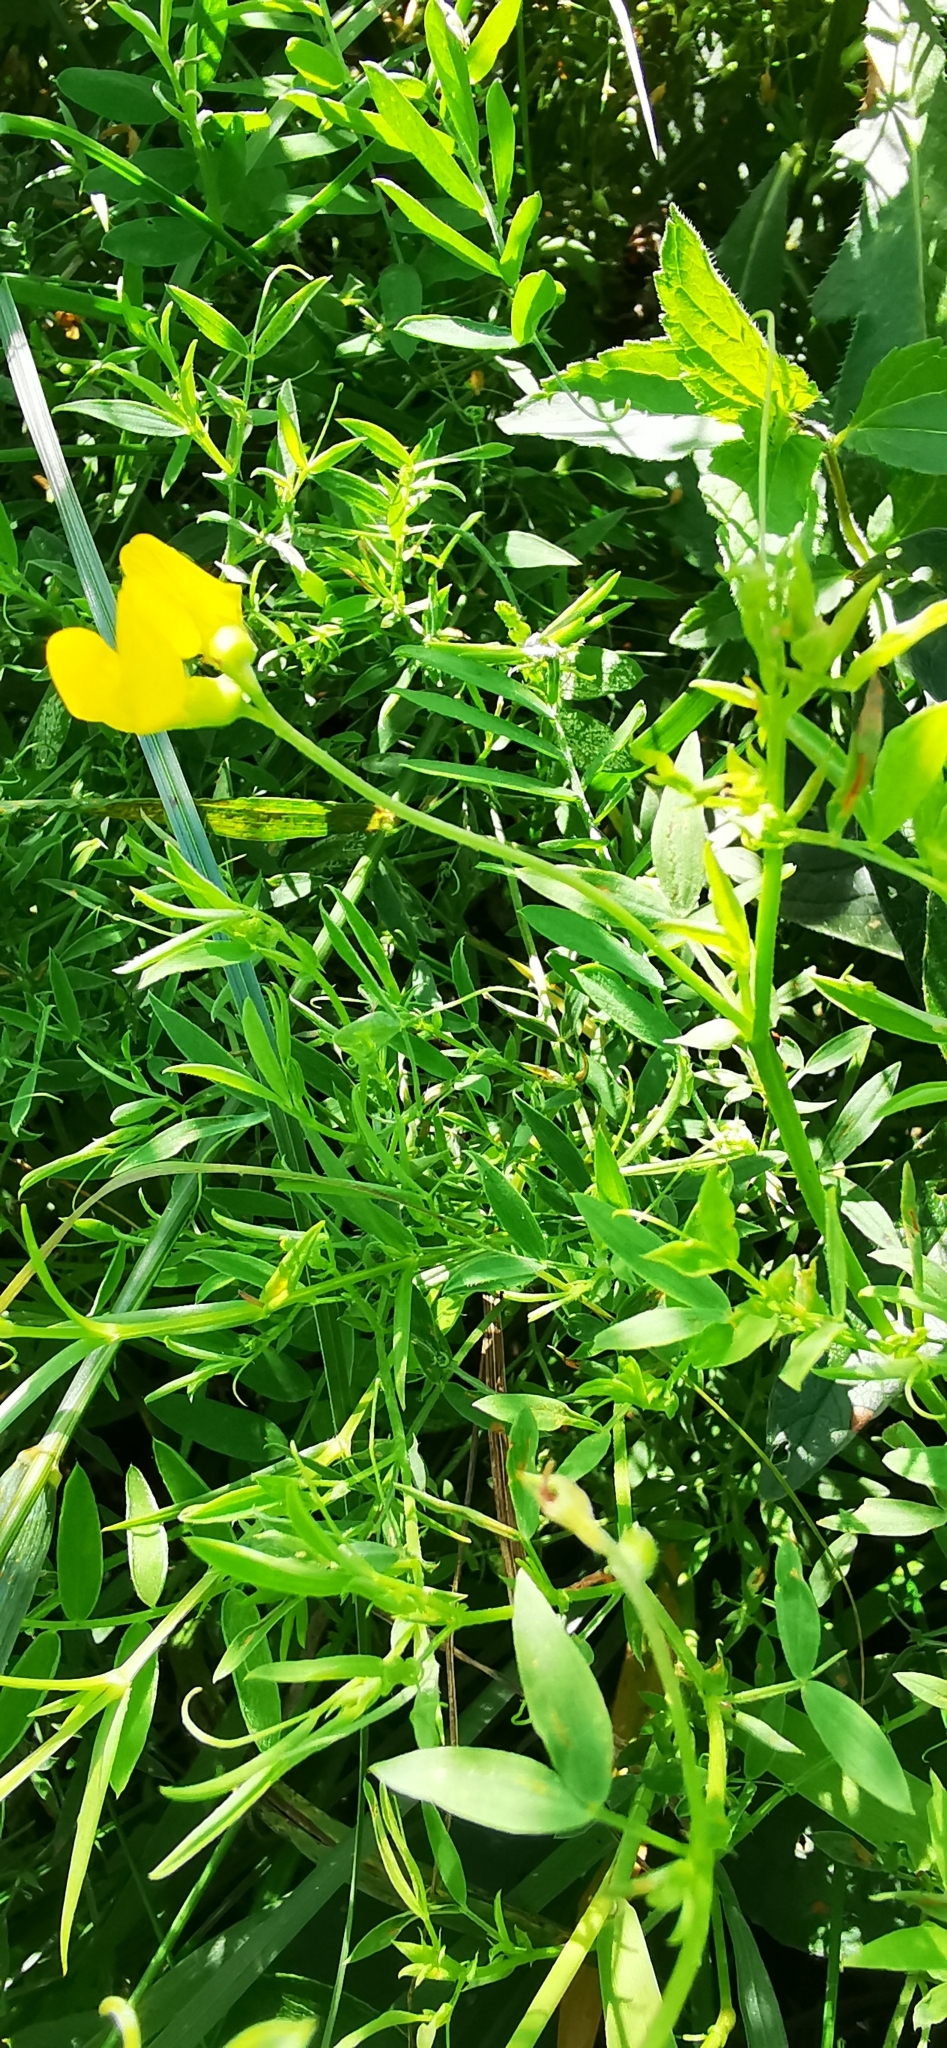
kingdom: Plantae
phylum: Tracheophyta
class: Magnoliopsida
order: Fabales
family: Fabaceae
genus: Lathyrus
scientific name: Lathyrus pratensis
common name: Meadow vetchling
